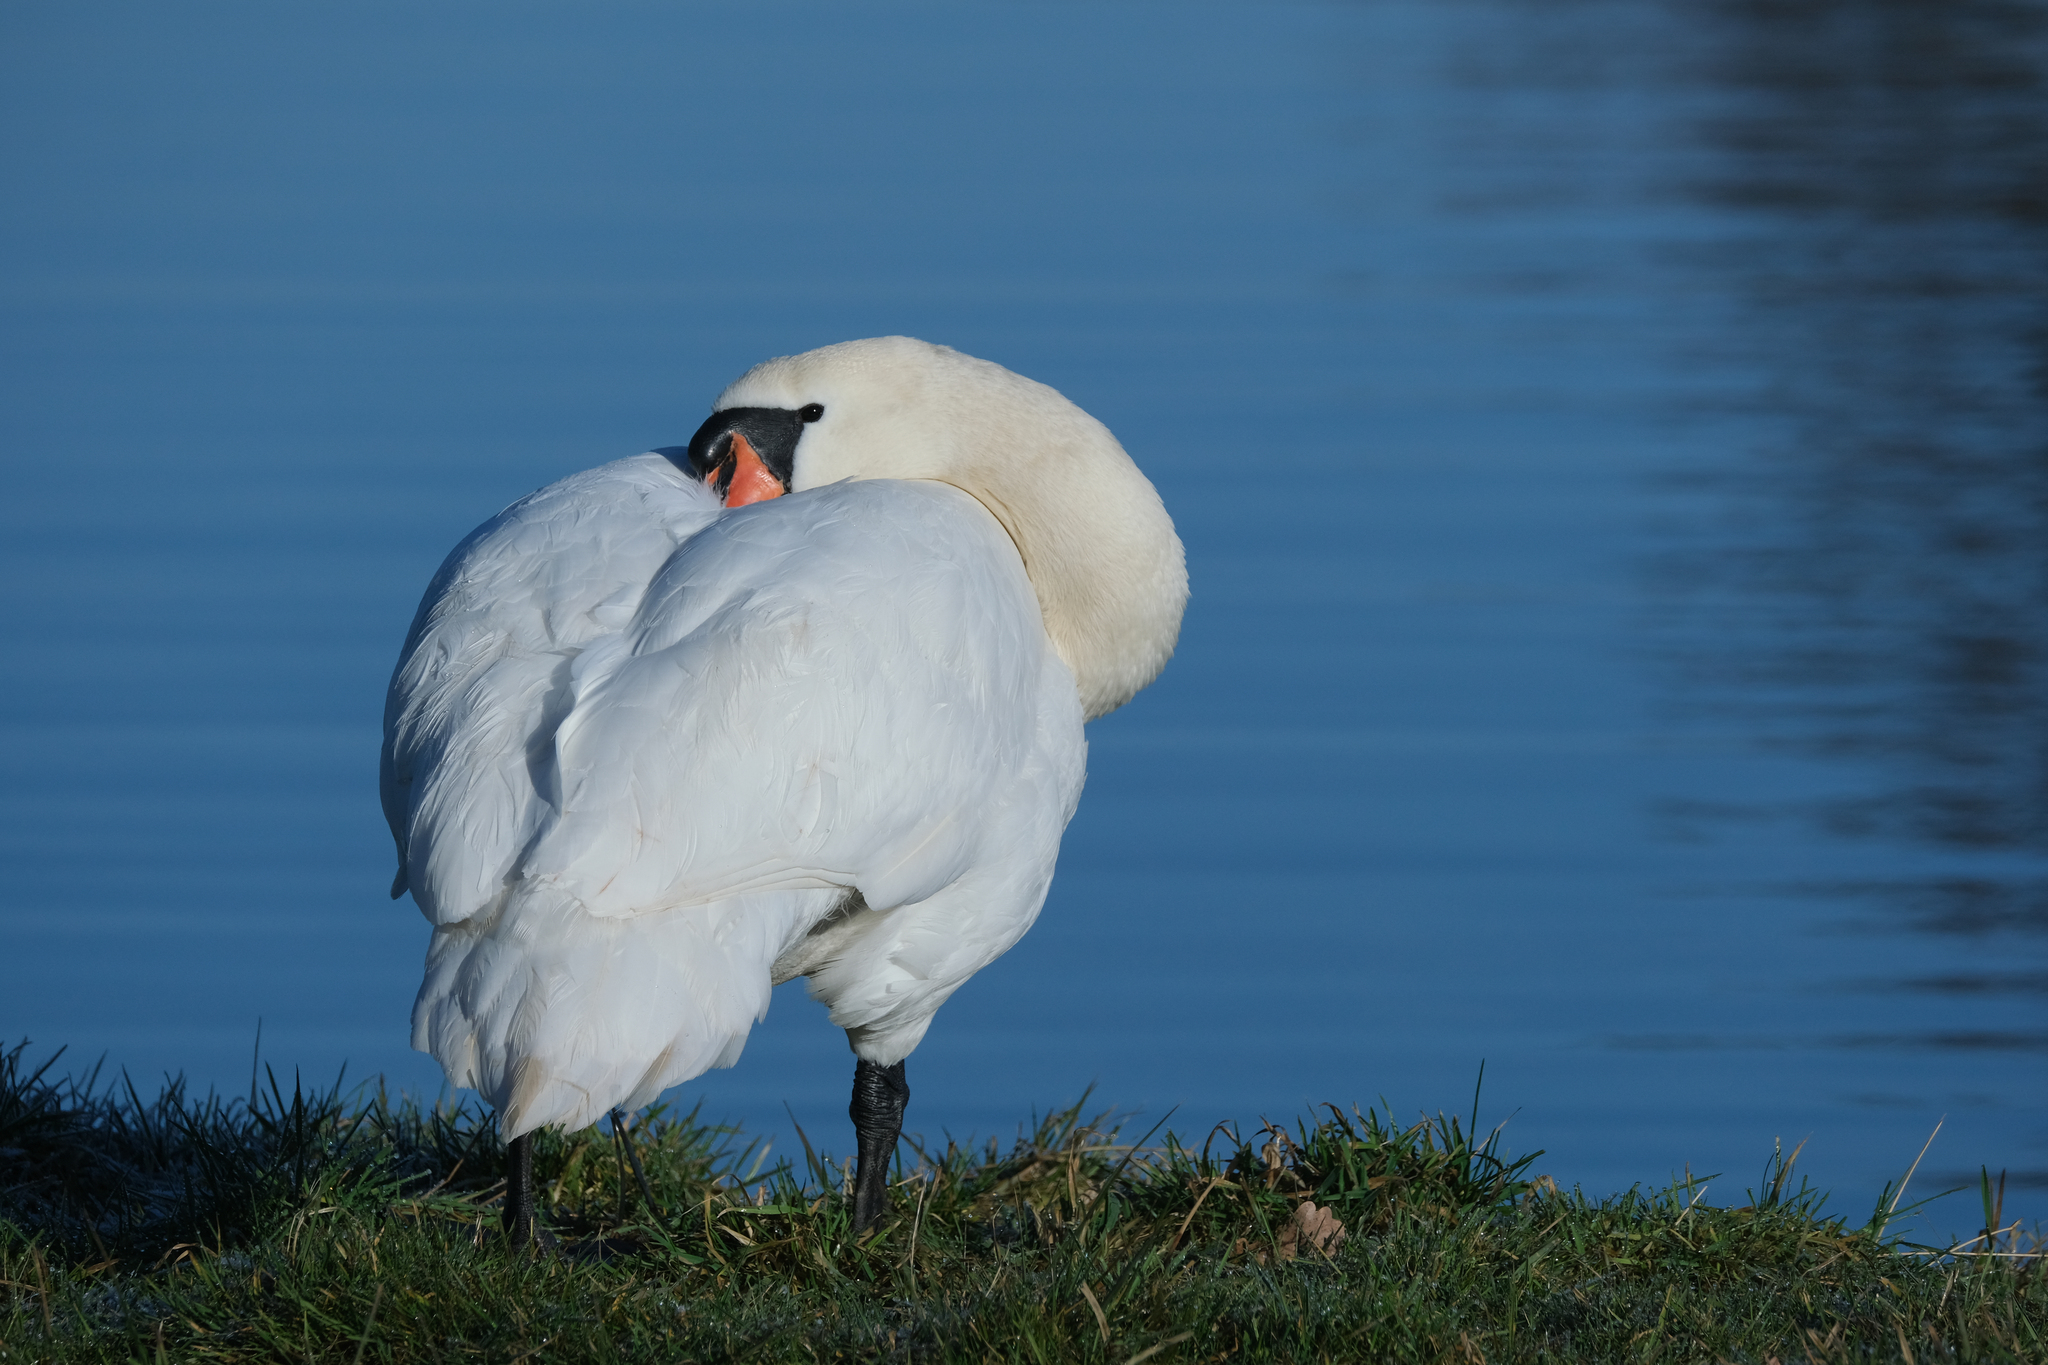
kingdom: Animalia
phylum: Chordata
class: Aves
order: Anseriformes
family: Anatidae
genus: Cygnus
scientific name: Cygnus olor
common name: Mute swan
